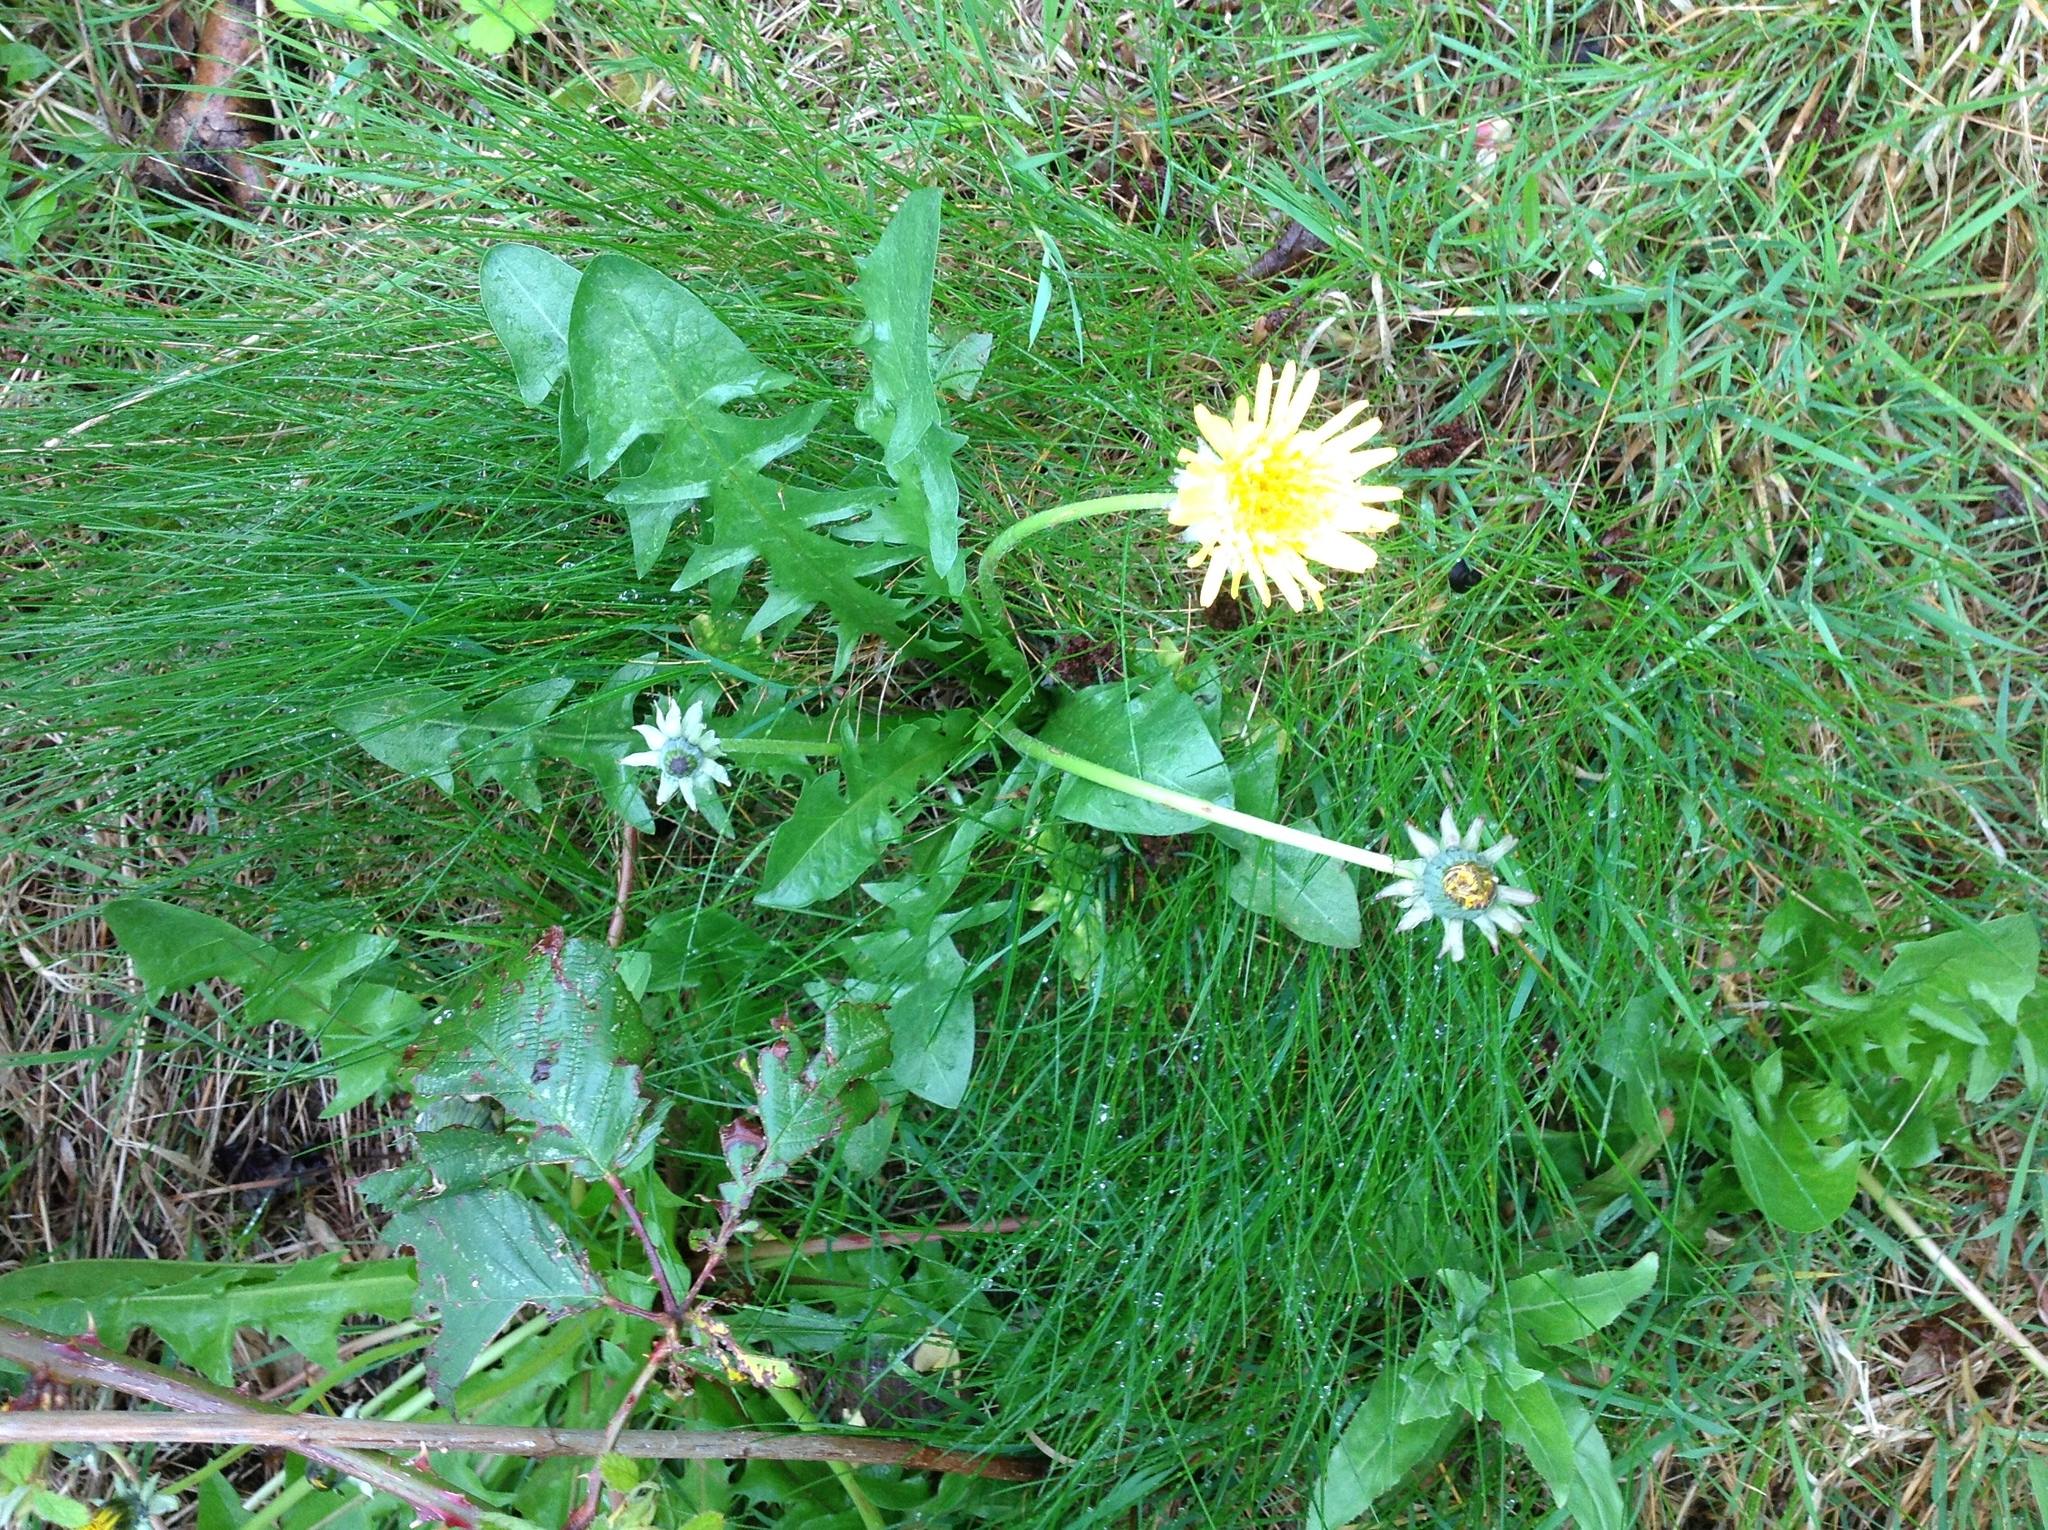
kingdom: Plantae
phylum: Tracheophyta
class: Magnoliopsida
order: Asterales
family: Asteraceae
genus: Taraxacum
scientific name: Taraxacum officinale
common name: Common dandelion
